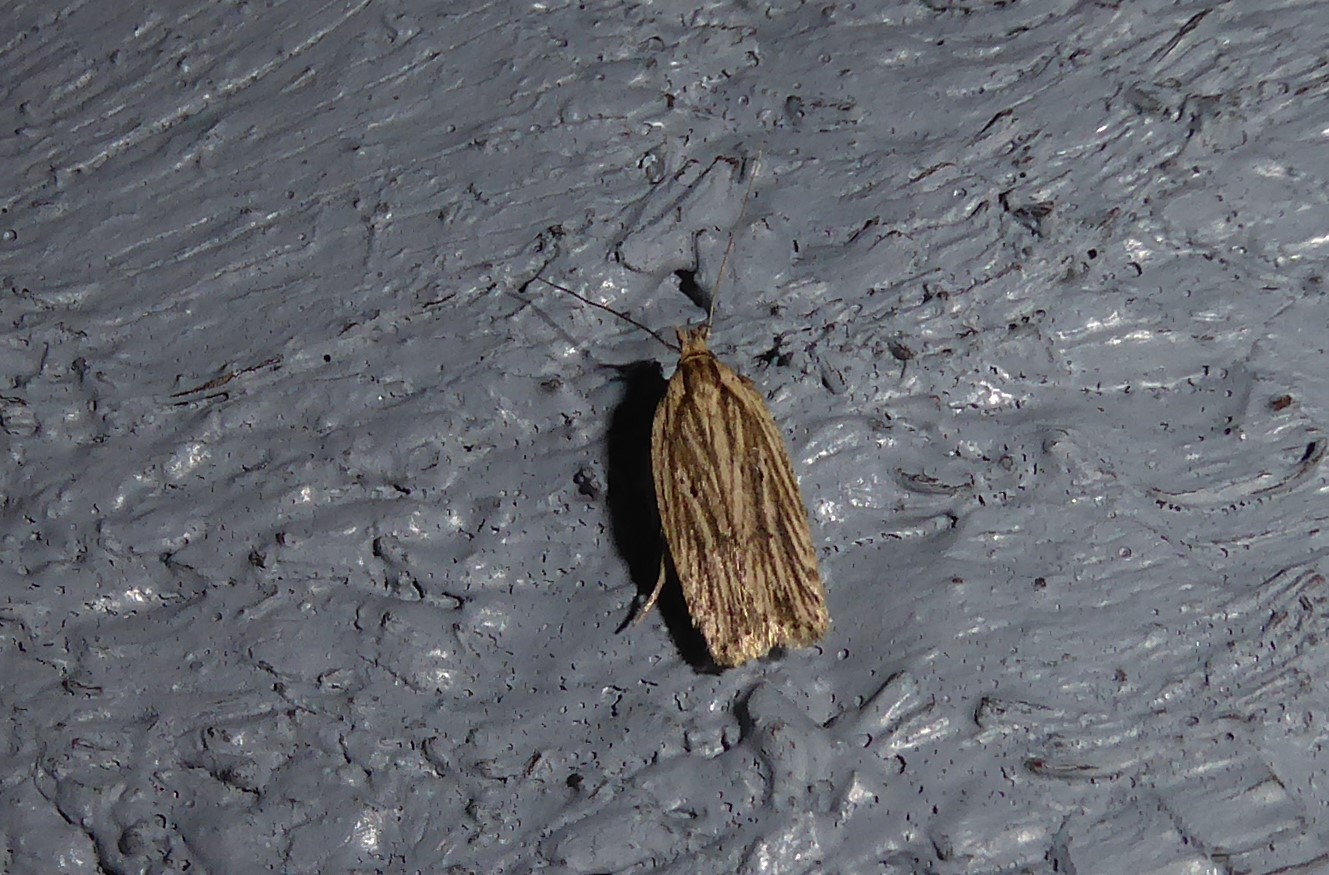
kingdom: Animalia
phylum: Arthropoda
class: Insecta
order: Lepidoptera
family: Depressariidae
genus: Agonopterix
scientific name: Agonopterix
